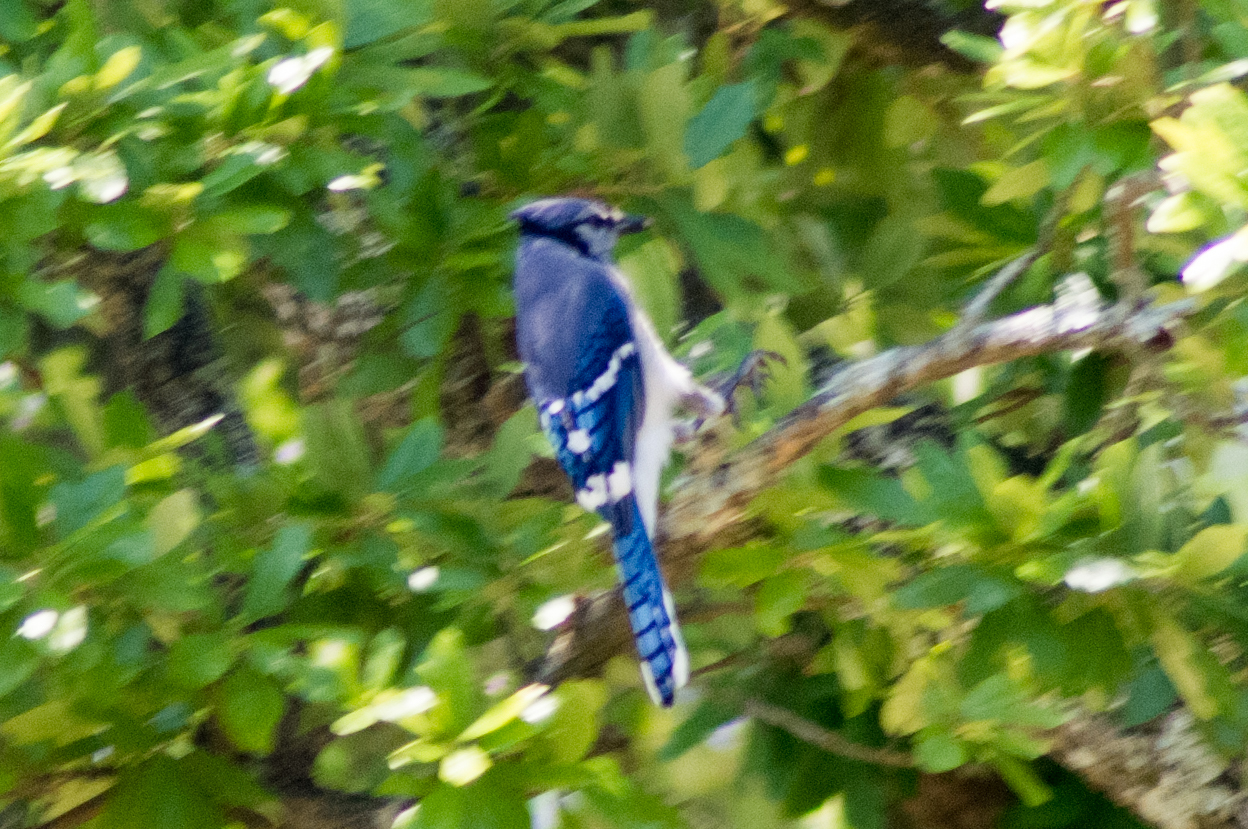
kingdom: Animalia
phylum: Chordata
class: Aves
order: Passeriformes
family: Corvidae
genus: Cyanocitta
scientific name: Cyanocitta cristata
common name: Blue jay
